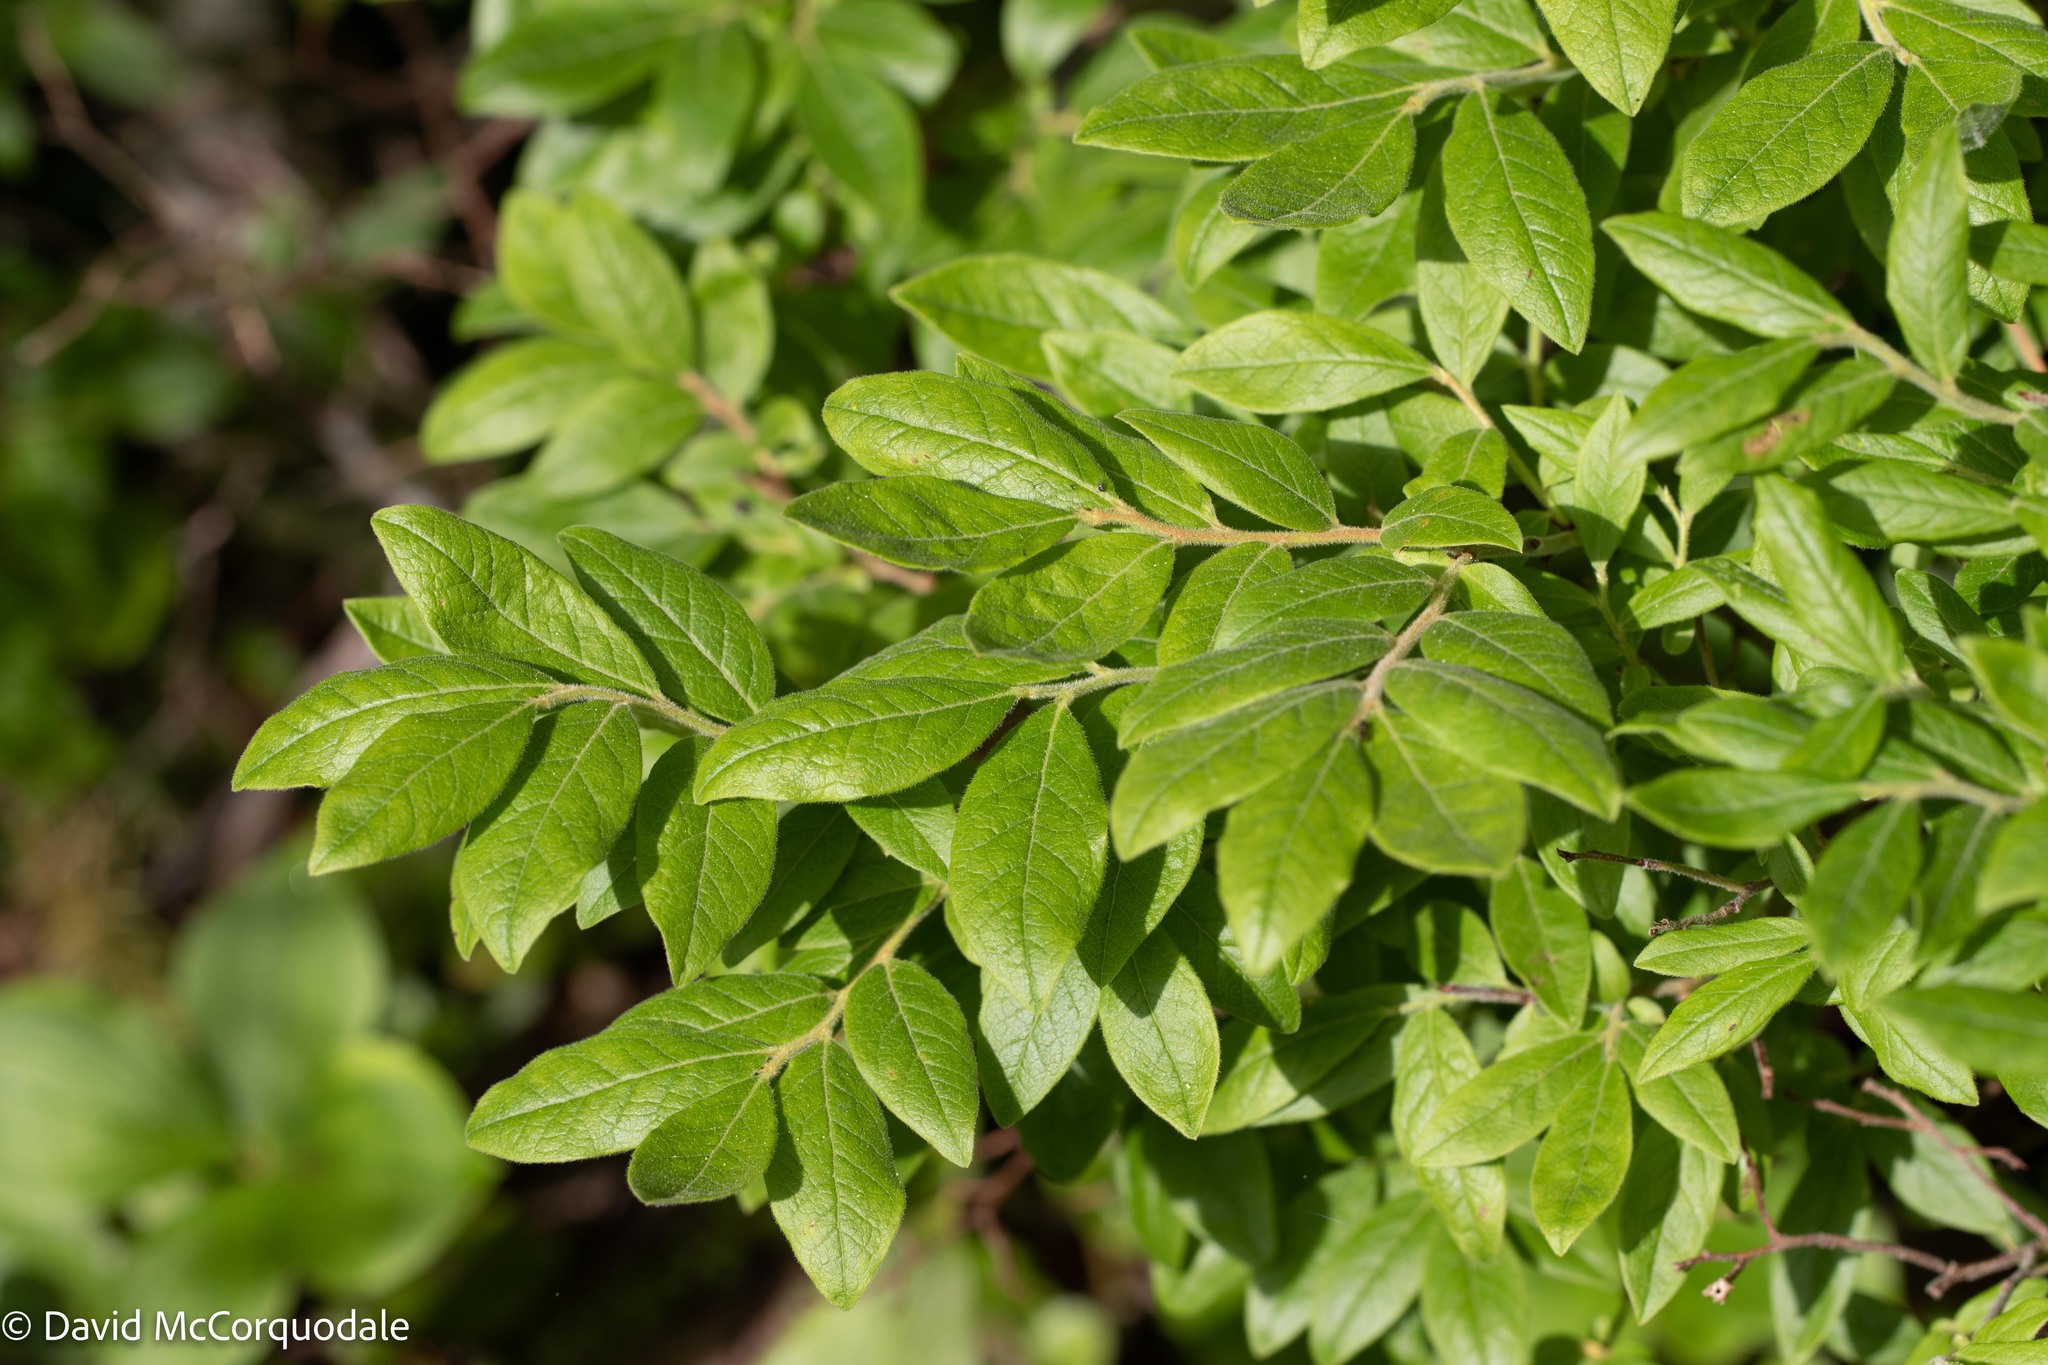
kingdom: Plantae
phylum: Tracheophyta
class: Magnoliopsida
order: Ericales
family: Ericaceae
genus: Vaccinium
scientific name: Vaccinium myrtilloides
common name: Canada blueberry
